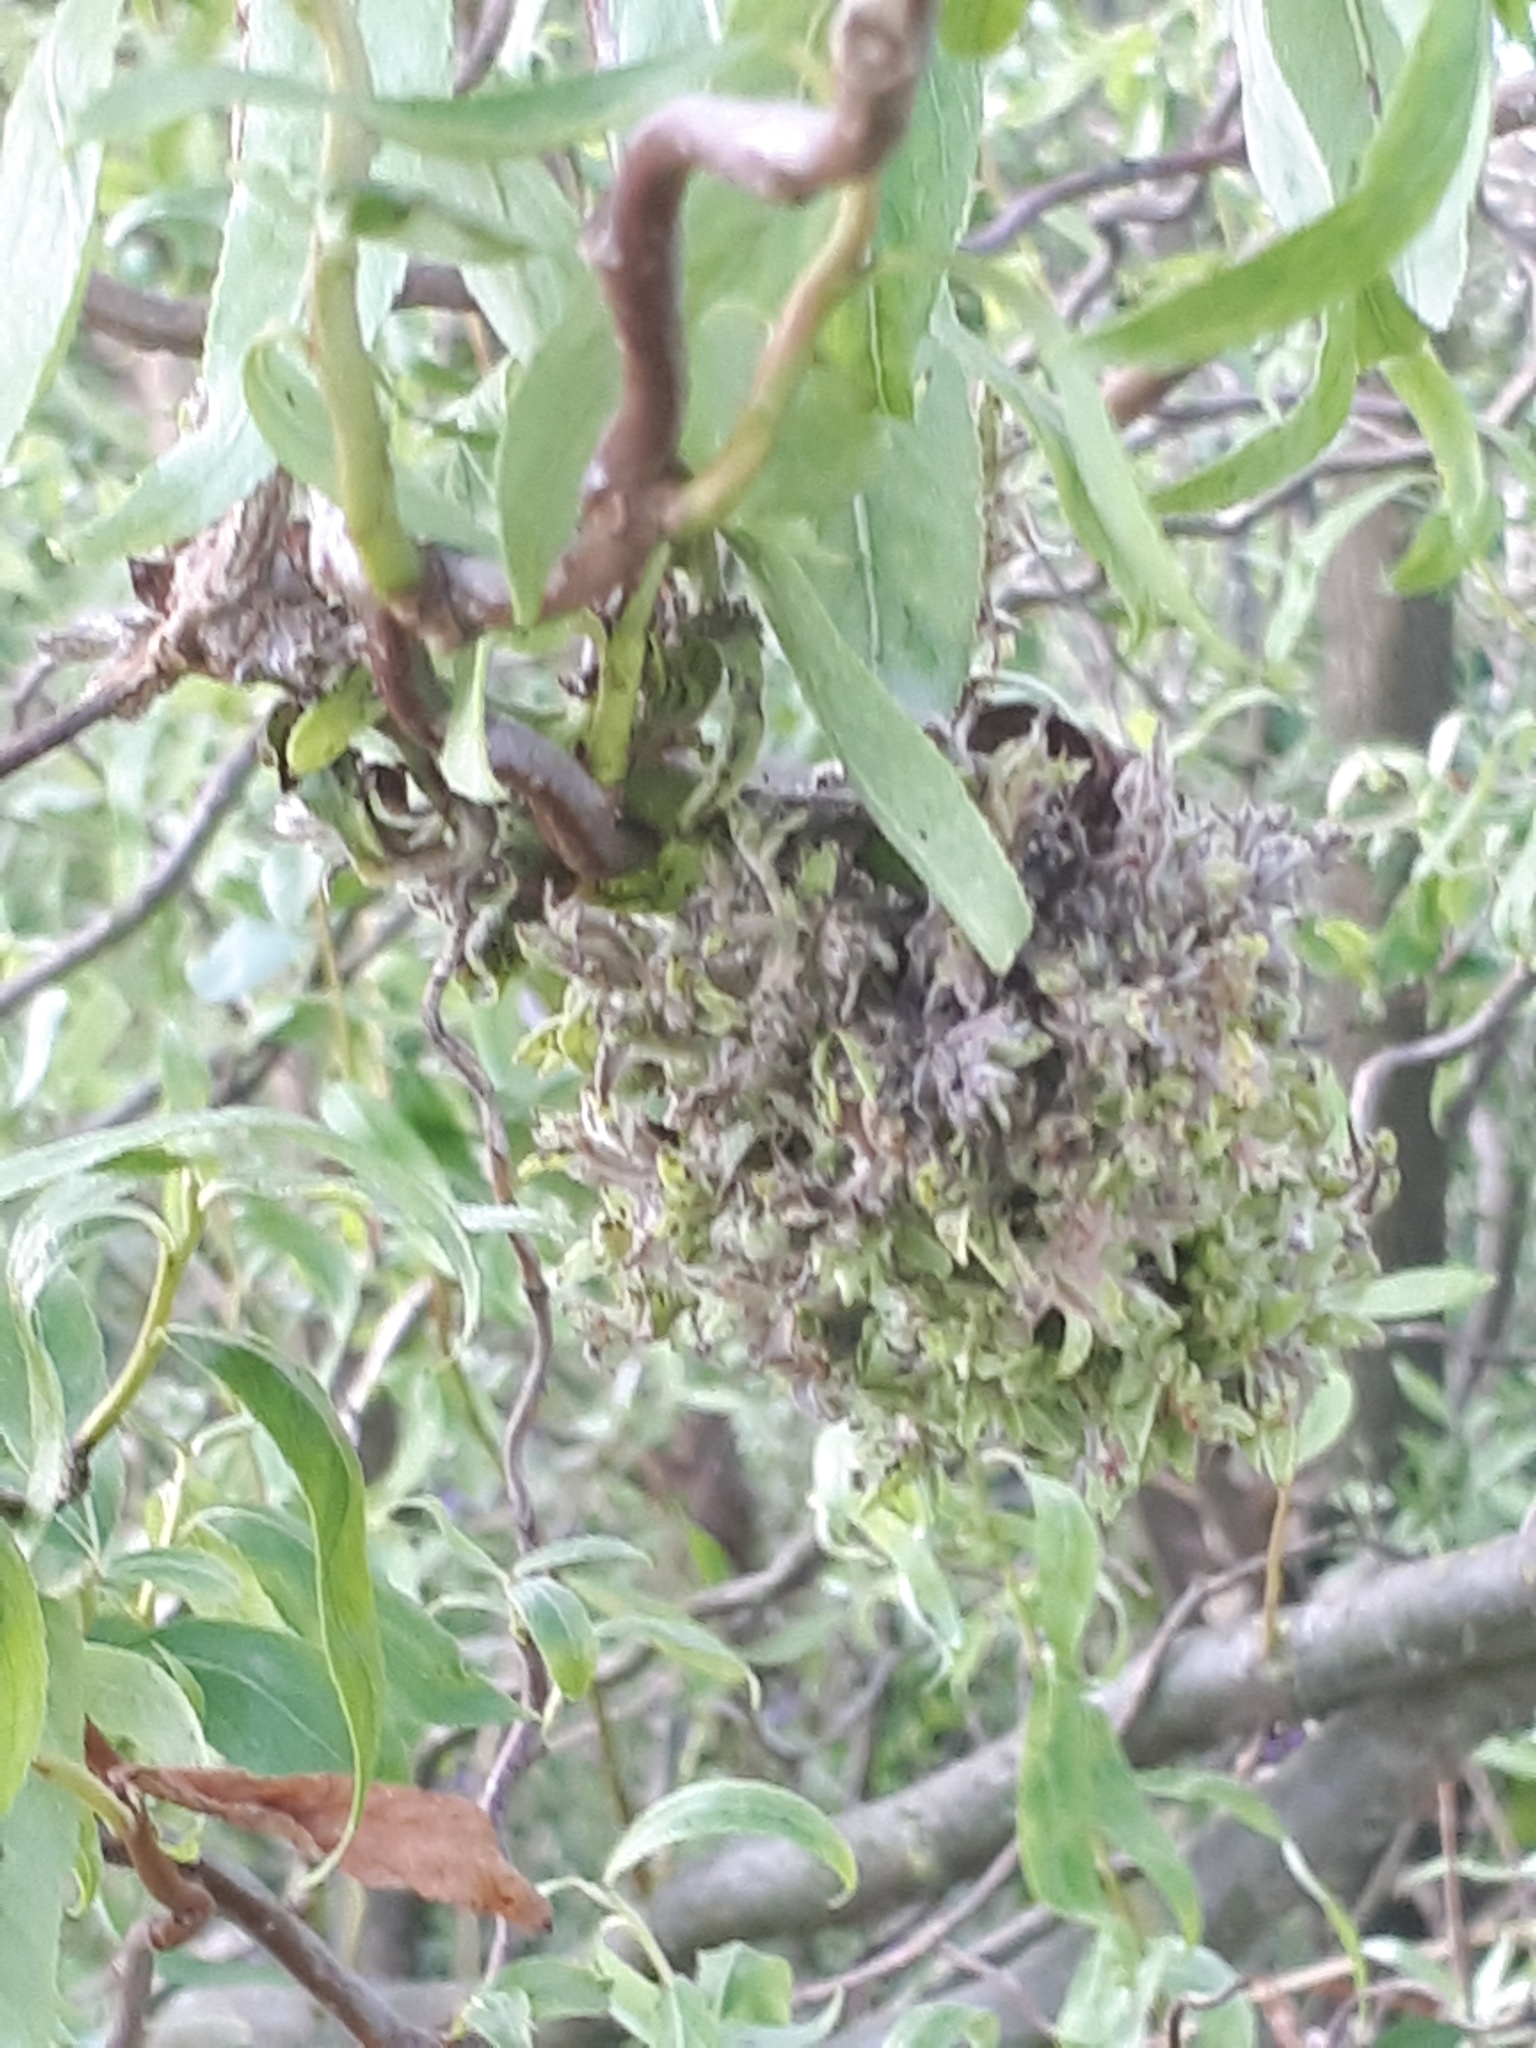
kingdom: Animalia
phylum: Arthropoda
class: Arachnida
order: Trombidiformes
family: Eriophyidae
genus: Stenacis
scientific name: Stenacis triradiatus
